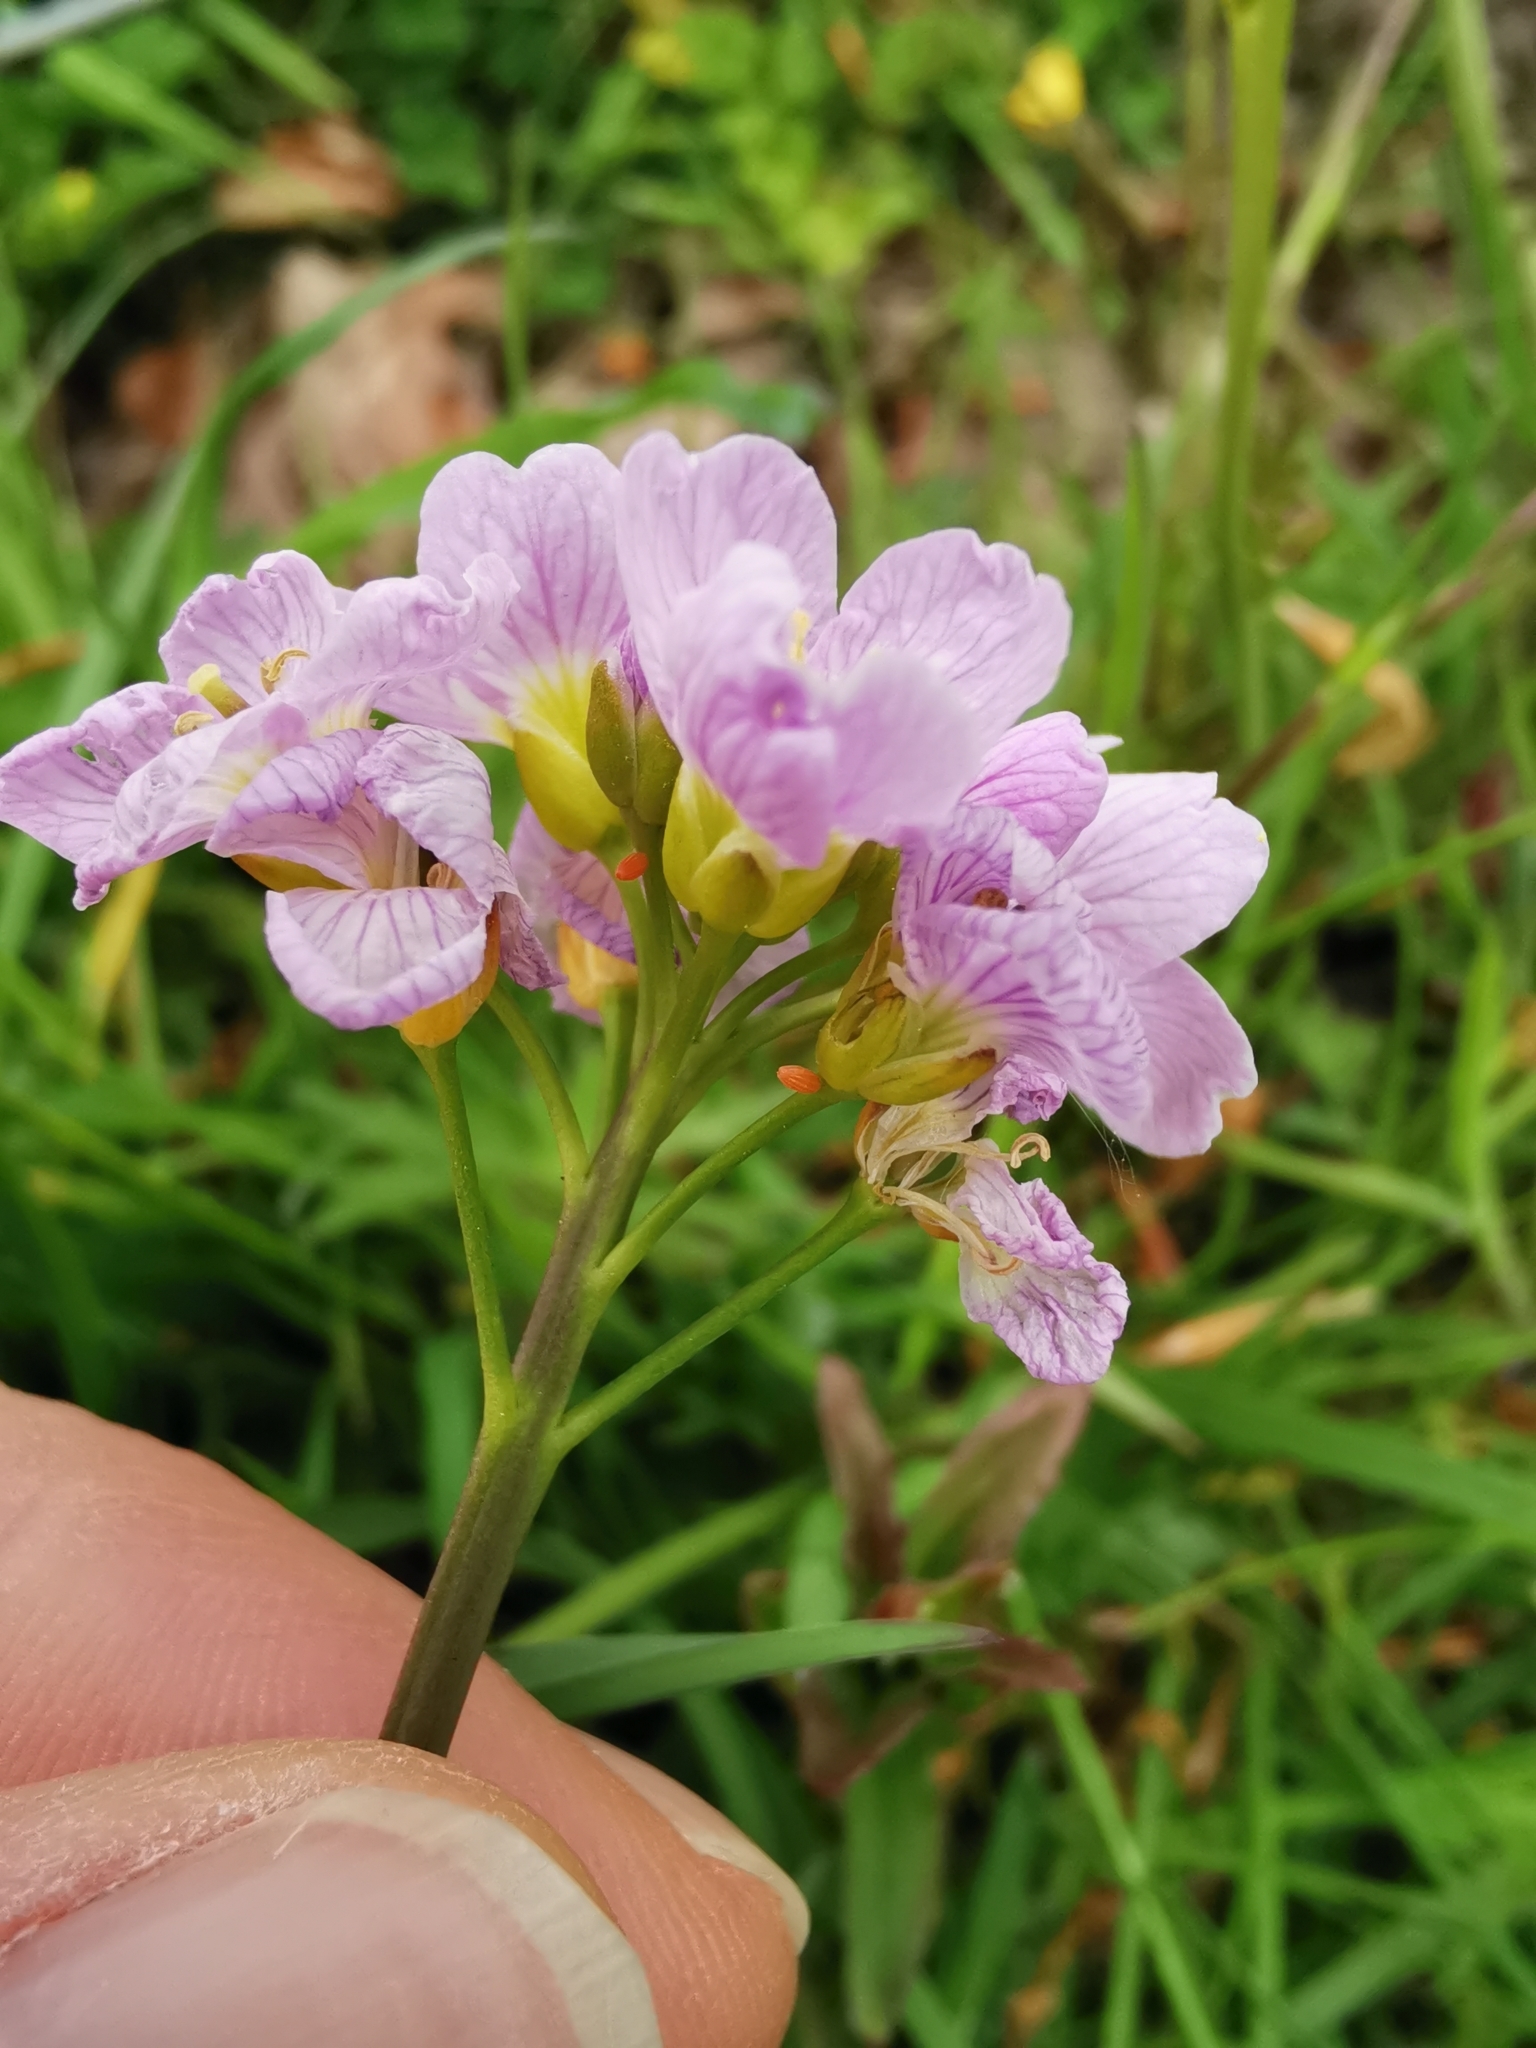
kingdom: Animalia
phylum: Arthropoda
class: Insecta
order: Lepidoptera
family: Pieridae
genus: Anthocharis
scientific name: Anthocharis cardamines
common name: Orange-tip
